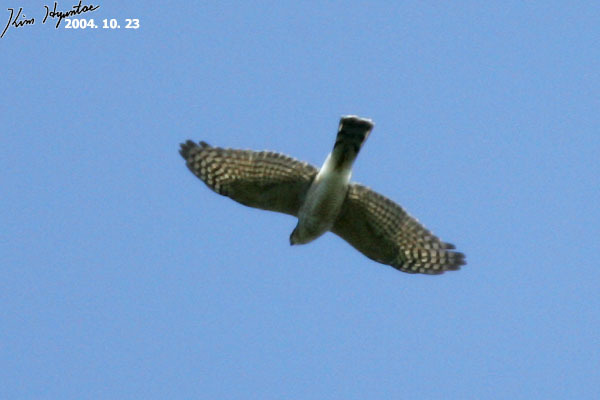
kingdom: Animalia
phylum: Chordata
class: Aves
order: Accipitriformes
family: Accipitridae
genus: Accipiter
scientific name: Accipiter nisus
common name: Eurasian sparrowhawk
